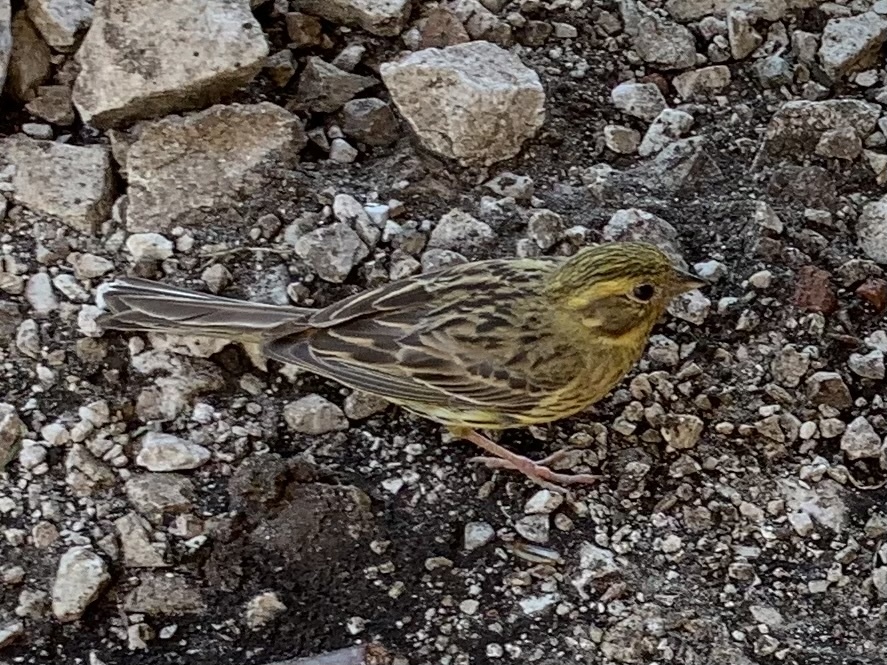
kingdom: Animalia
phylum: Chordata
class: Aves
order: Passeriformes
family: Emberizidae
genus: Emberiza
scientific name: Emberiza citrinella
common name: Yellowhammer
